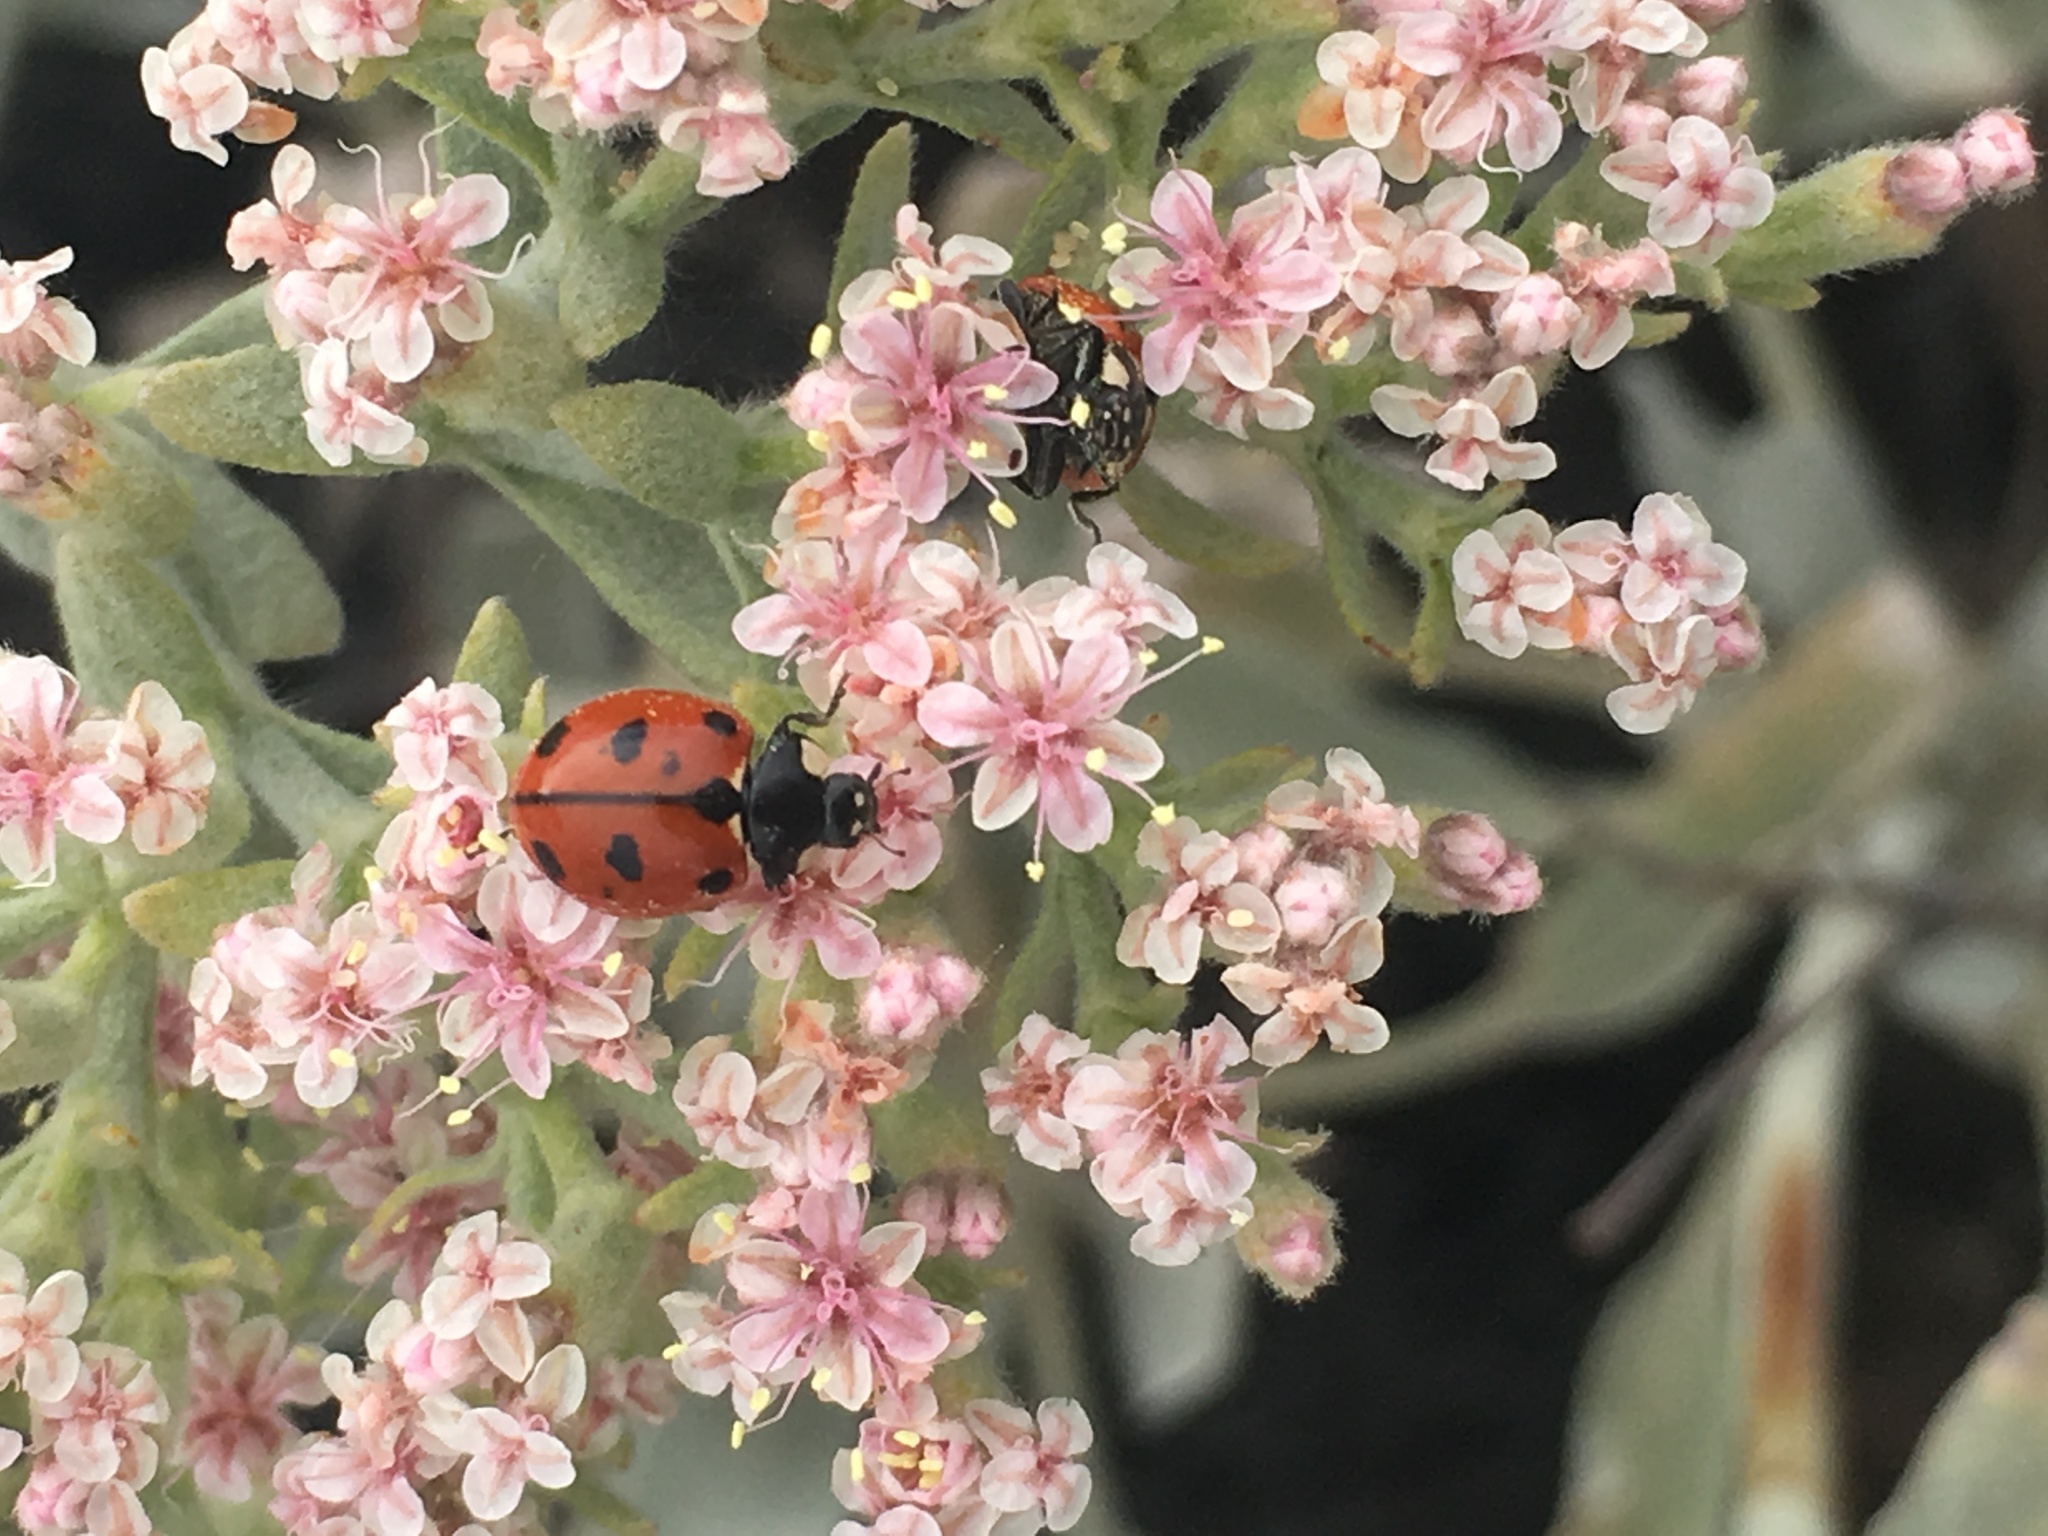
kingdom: Animalia
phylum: Arthropoda
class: Insecta
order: Coleoptera
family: Coccinellidae
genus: Coccinella
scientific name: Coccinella californica
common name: Lady beetle
